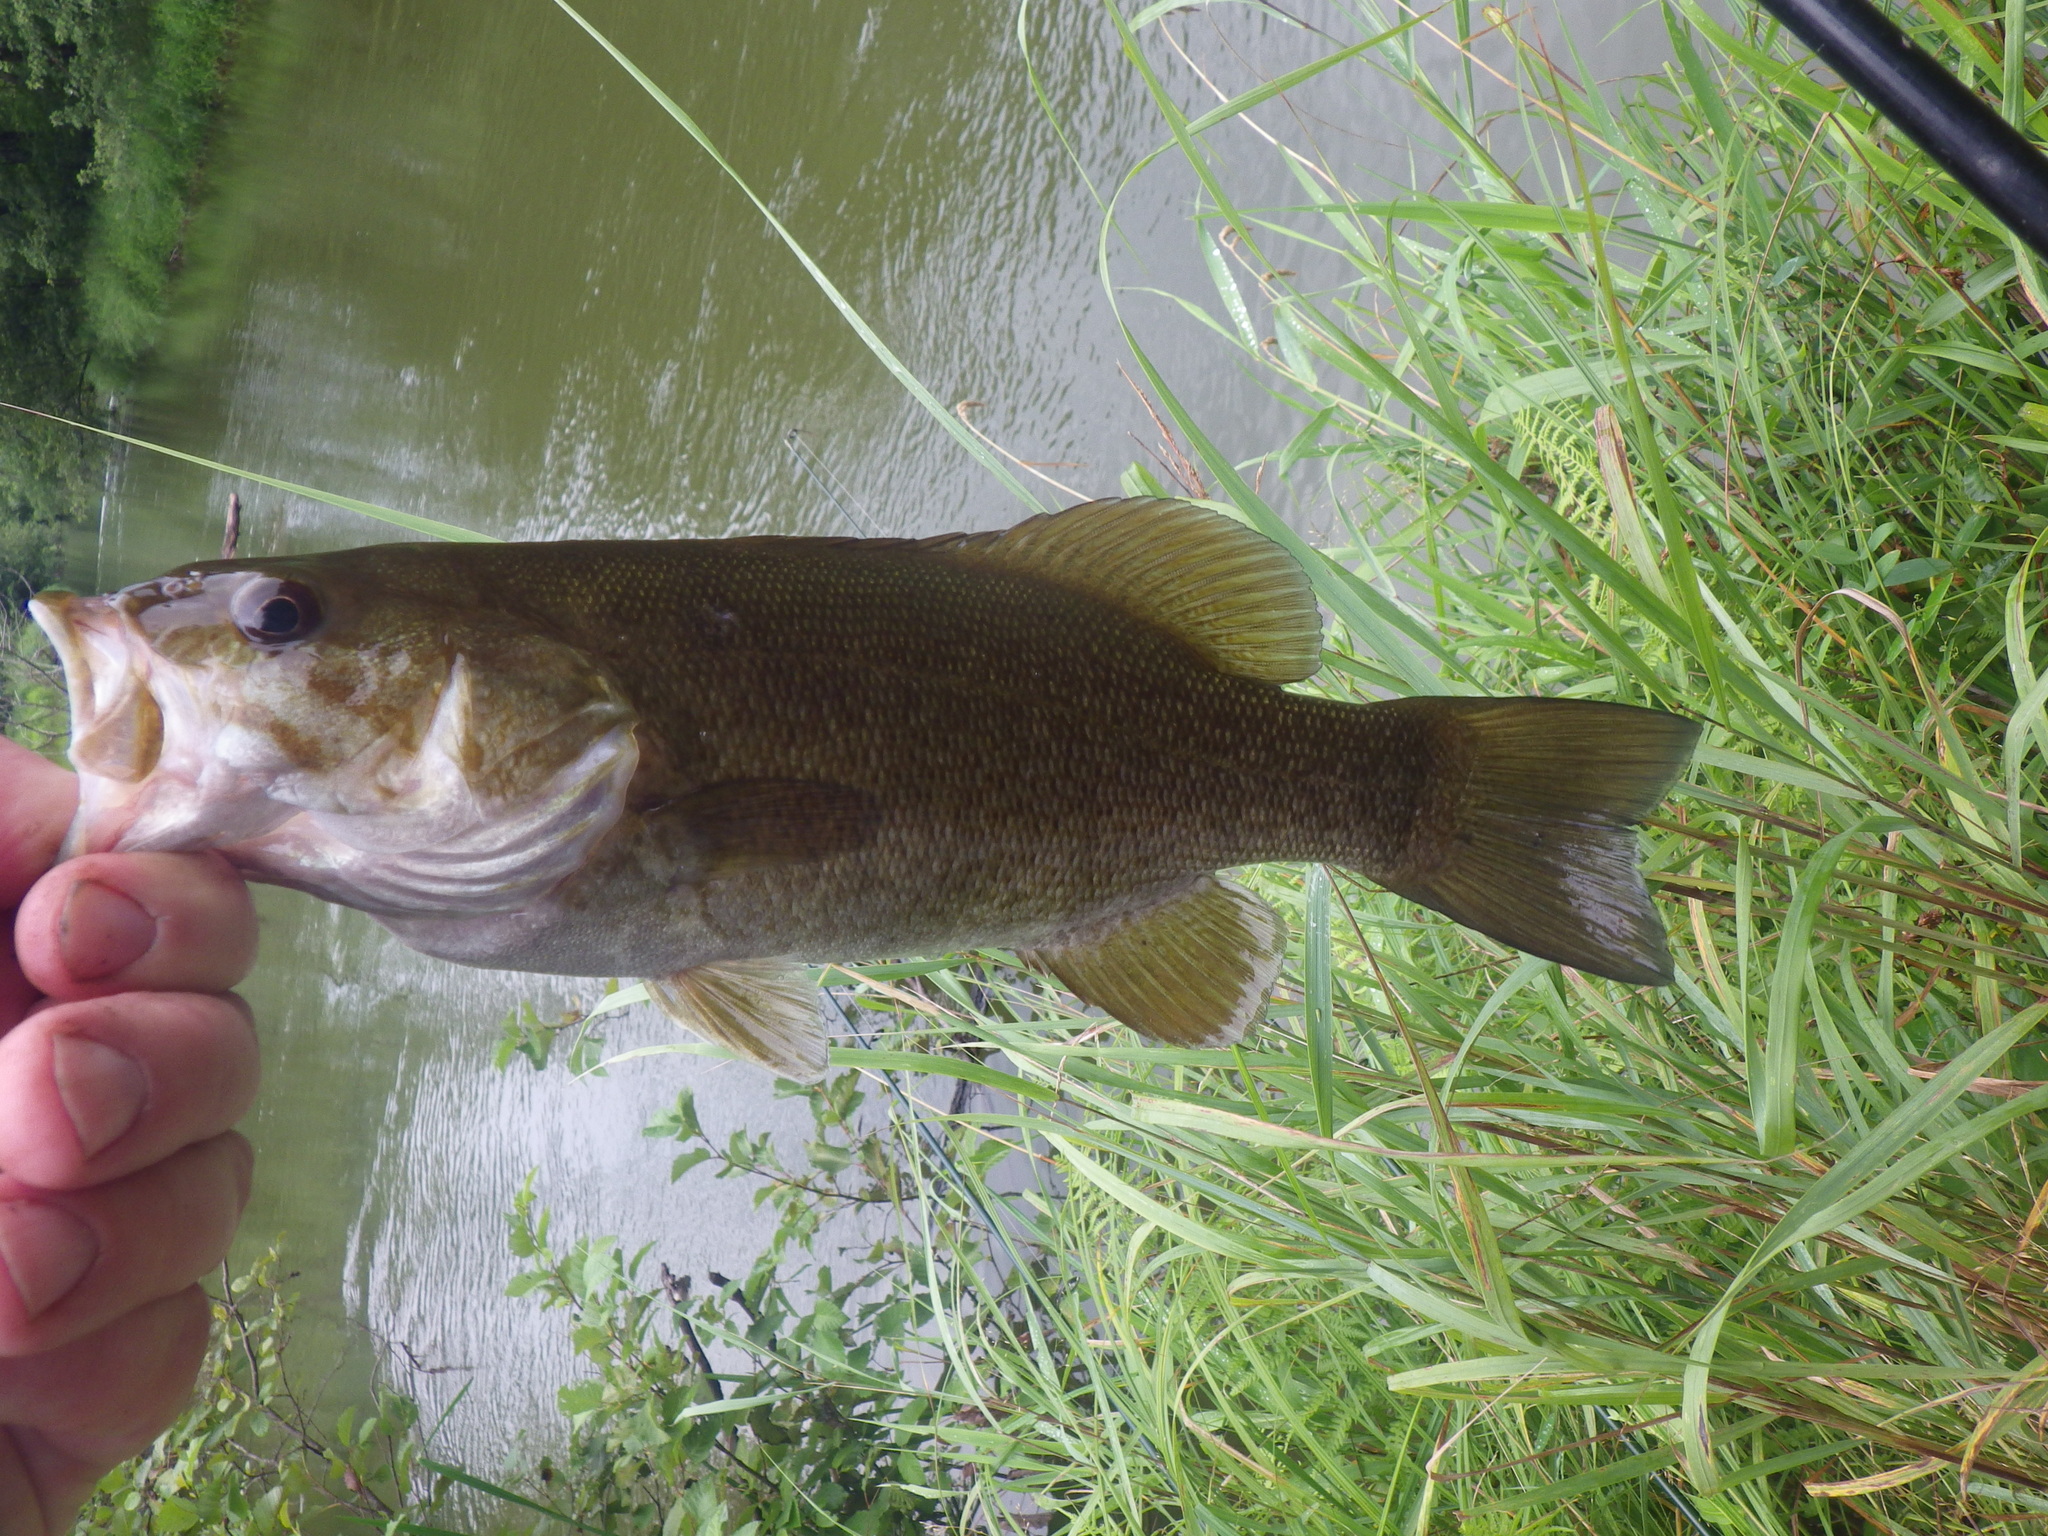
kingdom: Animalia
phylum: Chordata
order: Perciformes
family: Centrarchidae
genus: Micropterus
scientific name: Micropterus dolomieu
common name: Smallmouth bass
